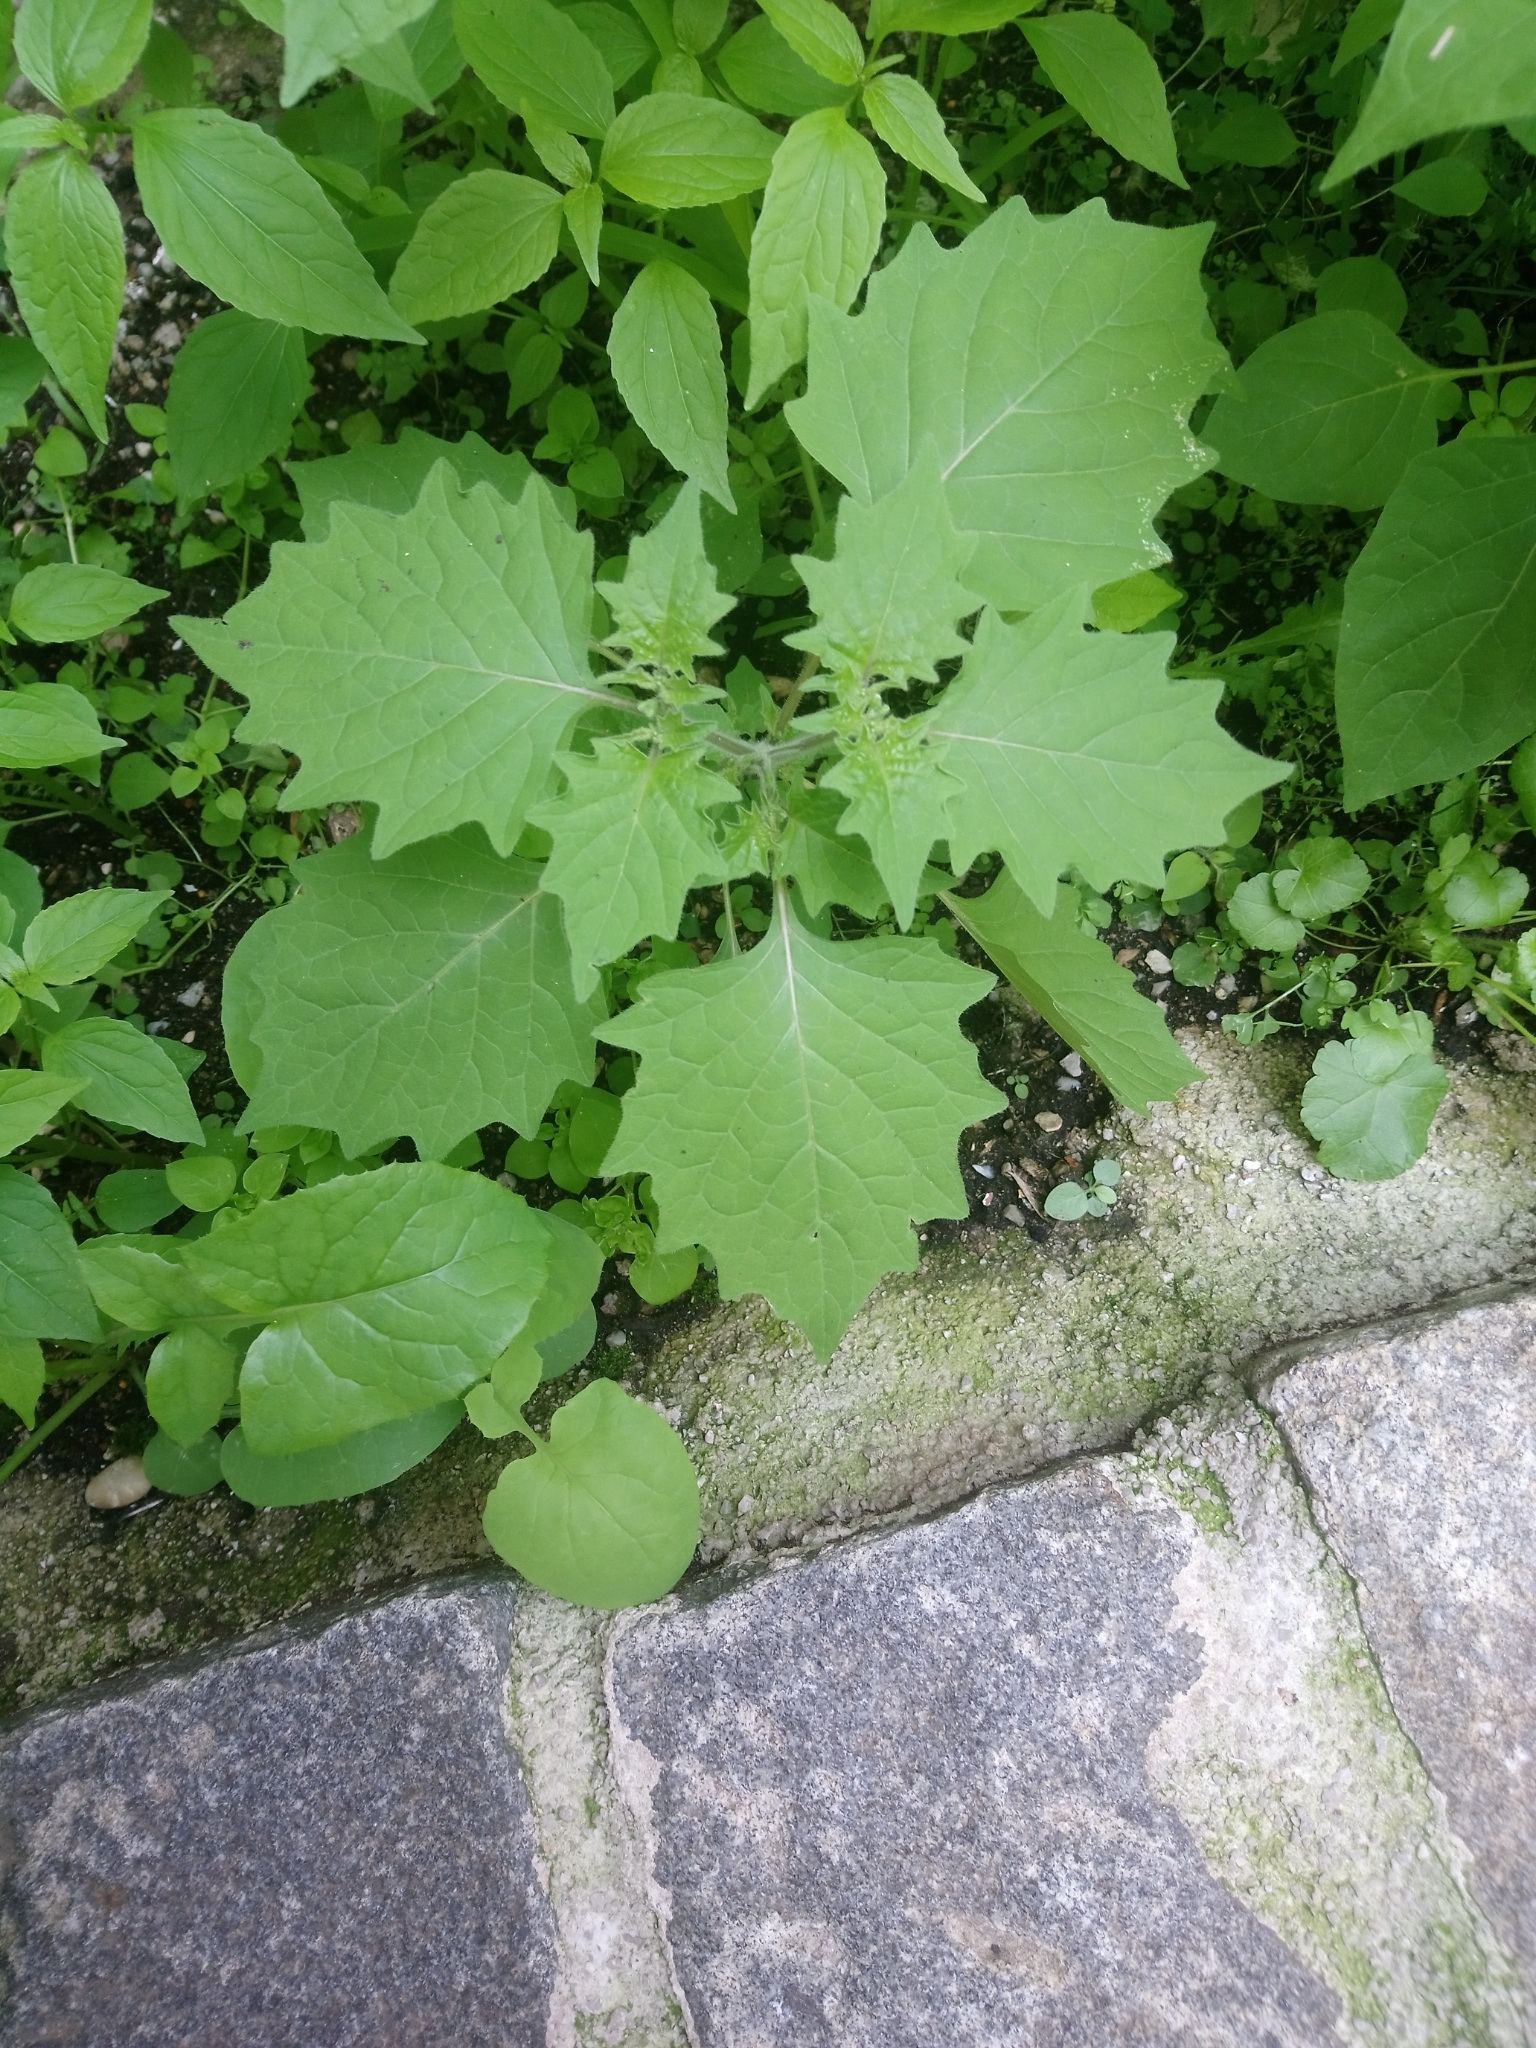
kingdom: Plantae
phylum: Tracheophyta
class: Magnoliopsida
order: Solanales
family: Solanaceae
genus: Solanum
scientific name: Solanum nigrum
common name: Black nightshade
